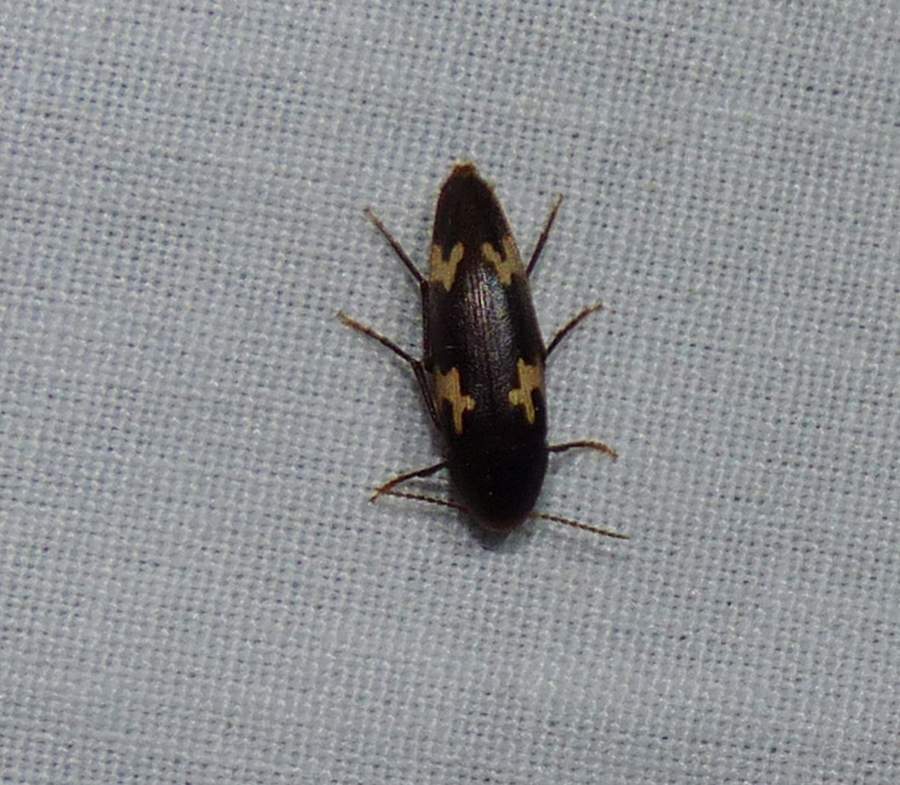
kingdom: Animalia
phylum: Arthropoda
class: Insecta
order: Coleoptera
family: Melandryidae
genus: Dircaea
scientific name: Dircaea liturata
